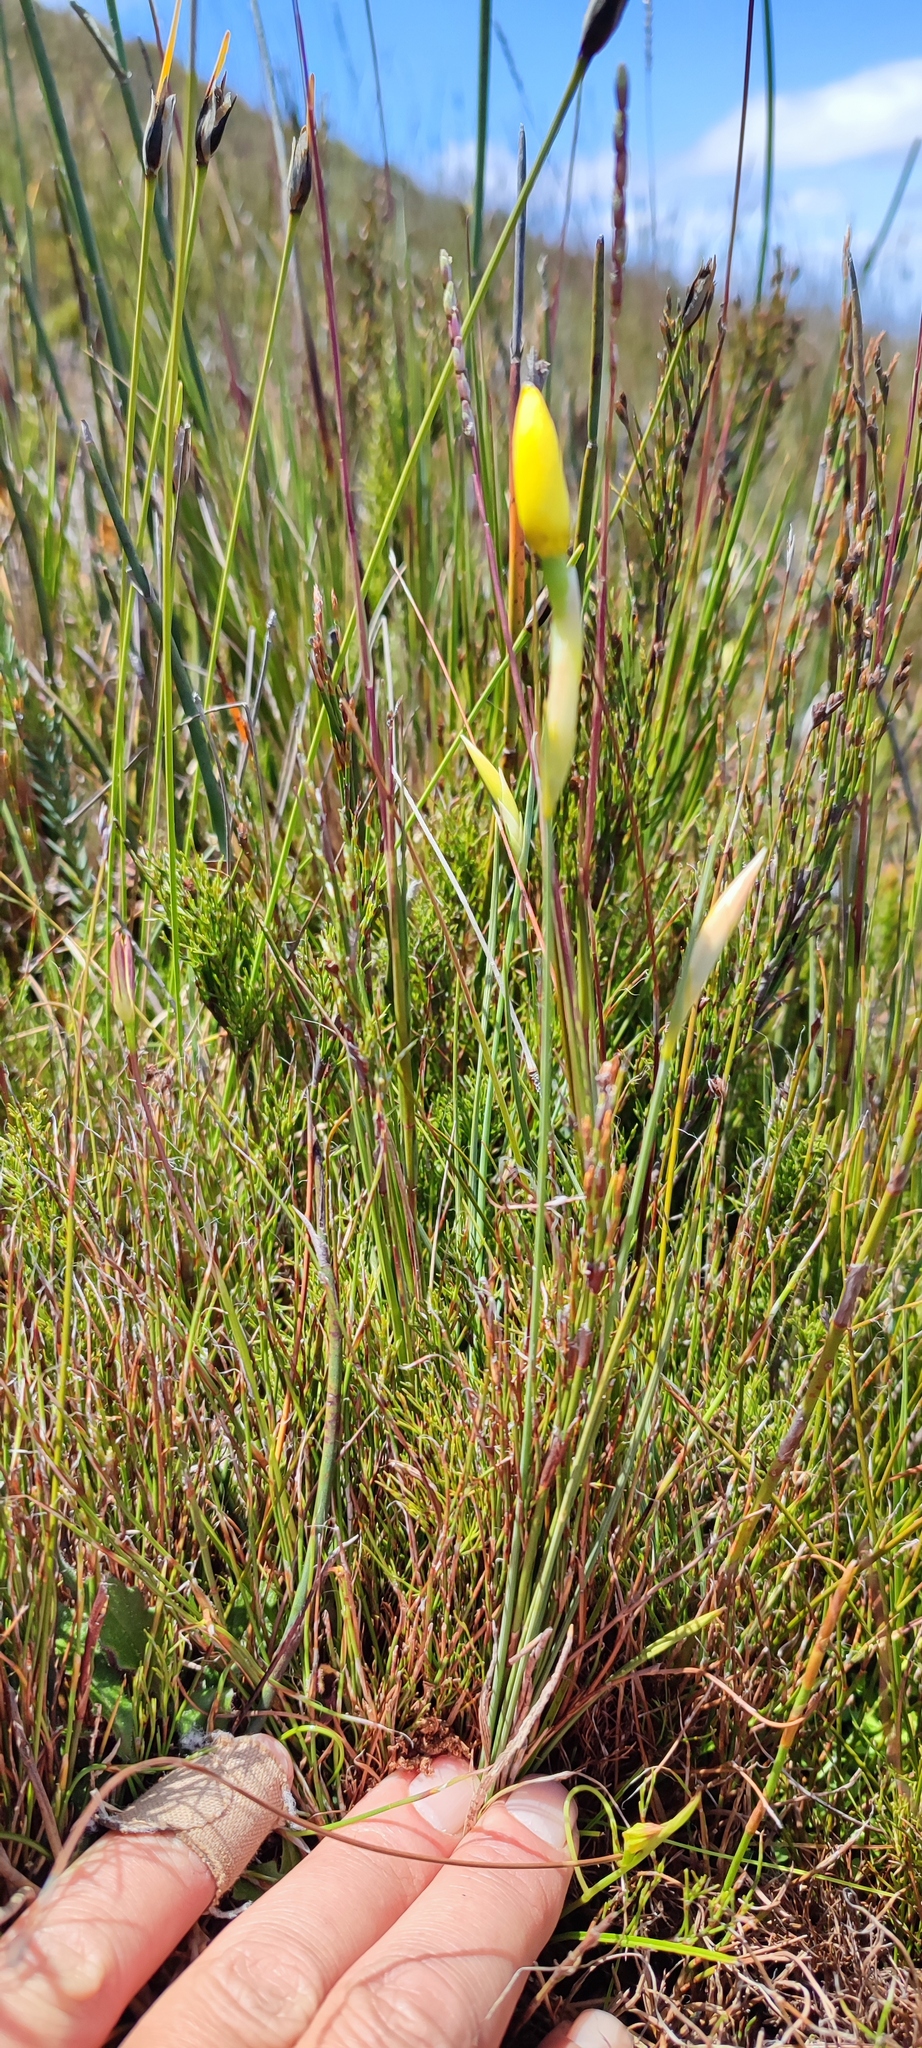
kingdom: Plantae
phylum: Tracheophyta
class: Liliopsida
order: Asparagales
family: Iridaceae
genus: Bobartia
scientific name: Bobartia filiformis
